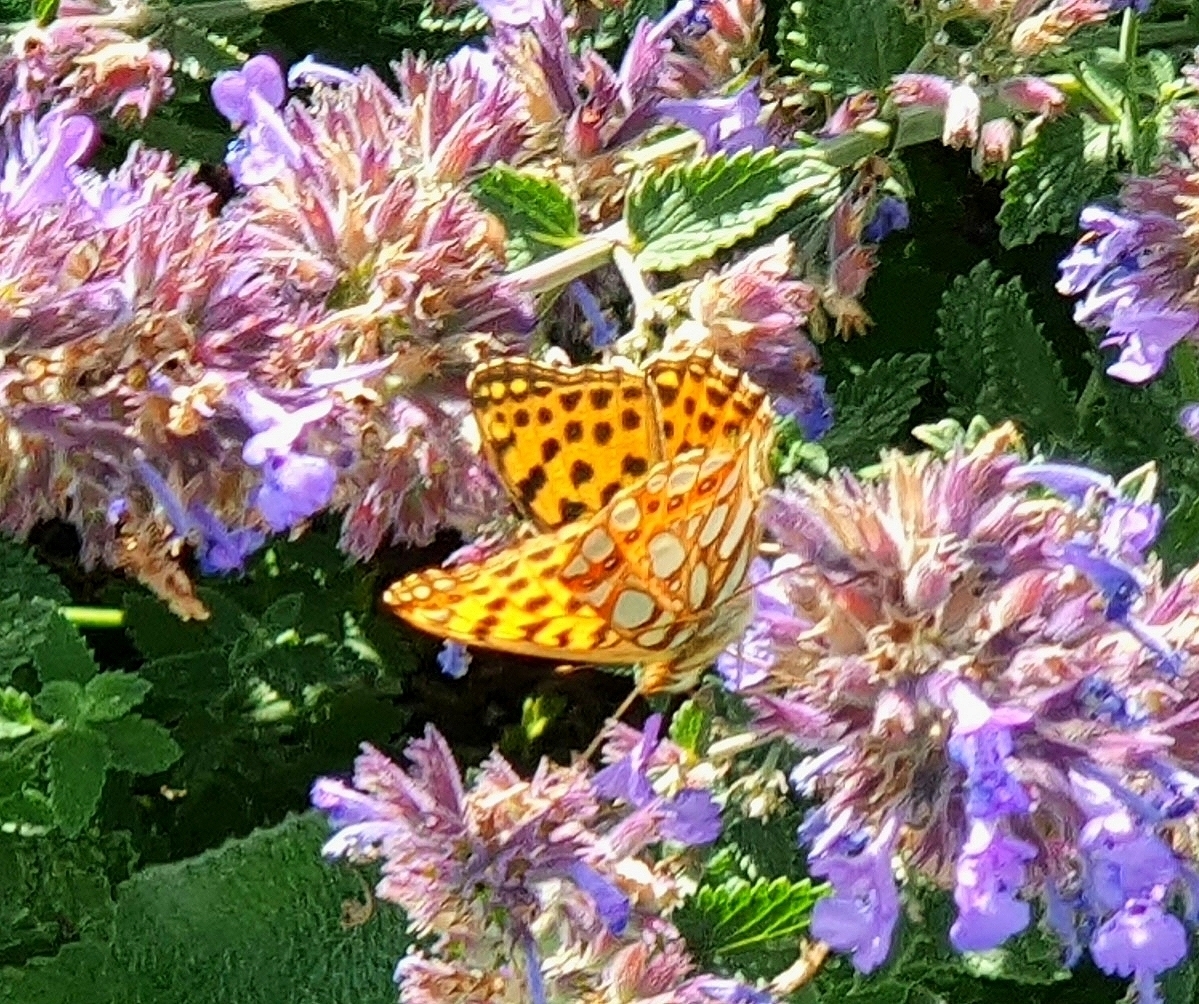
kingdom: Animalia
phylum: Arthropoda
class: Insecta
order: Lepidoptera
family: Nymphalidae
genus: Issoria
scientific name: Issoria lathonia
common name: Queen of spain fritillary
